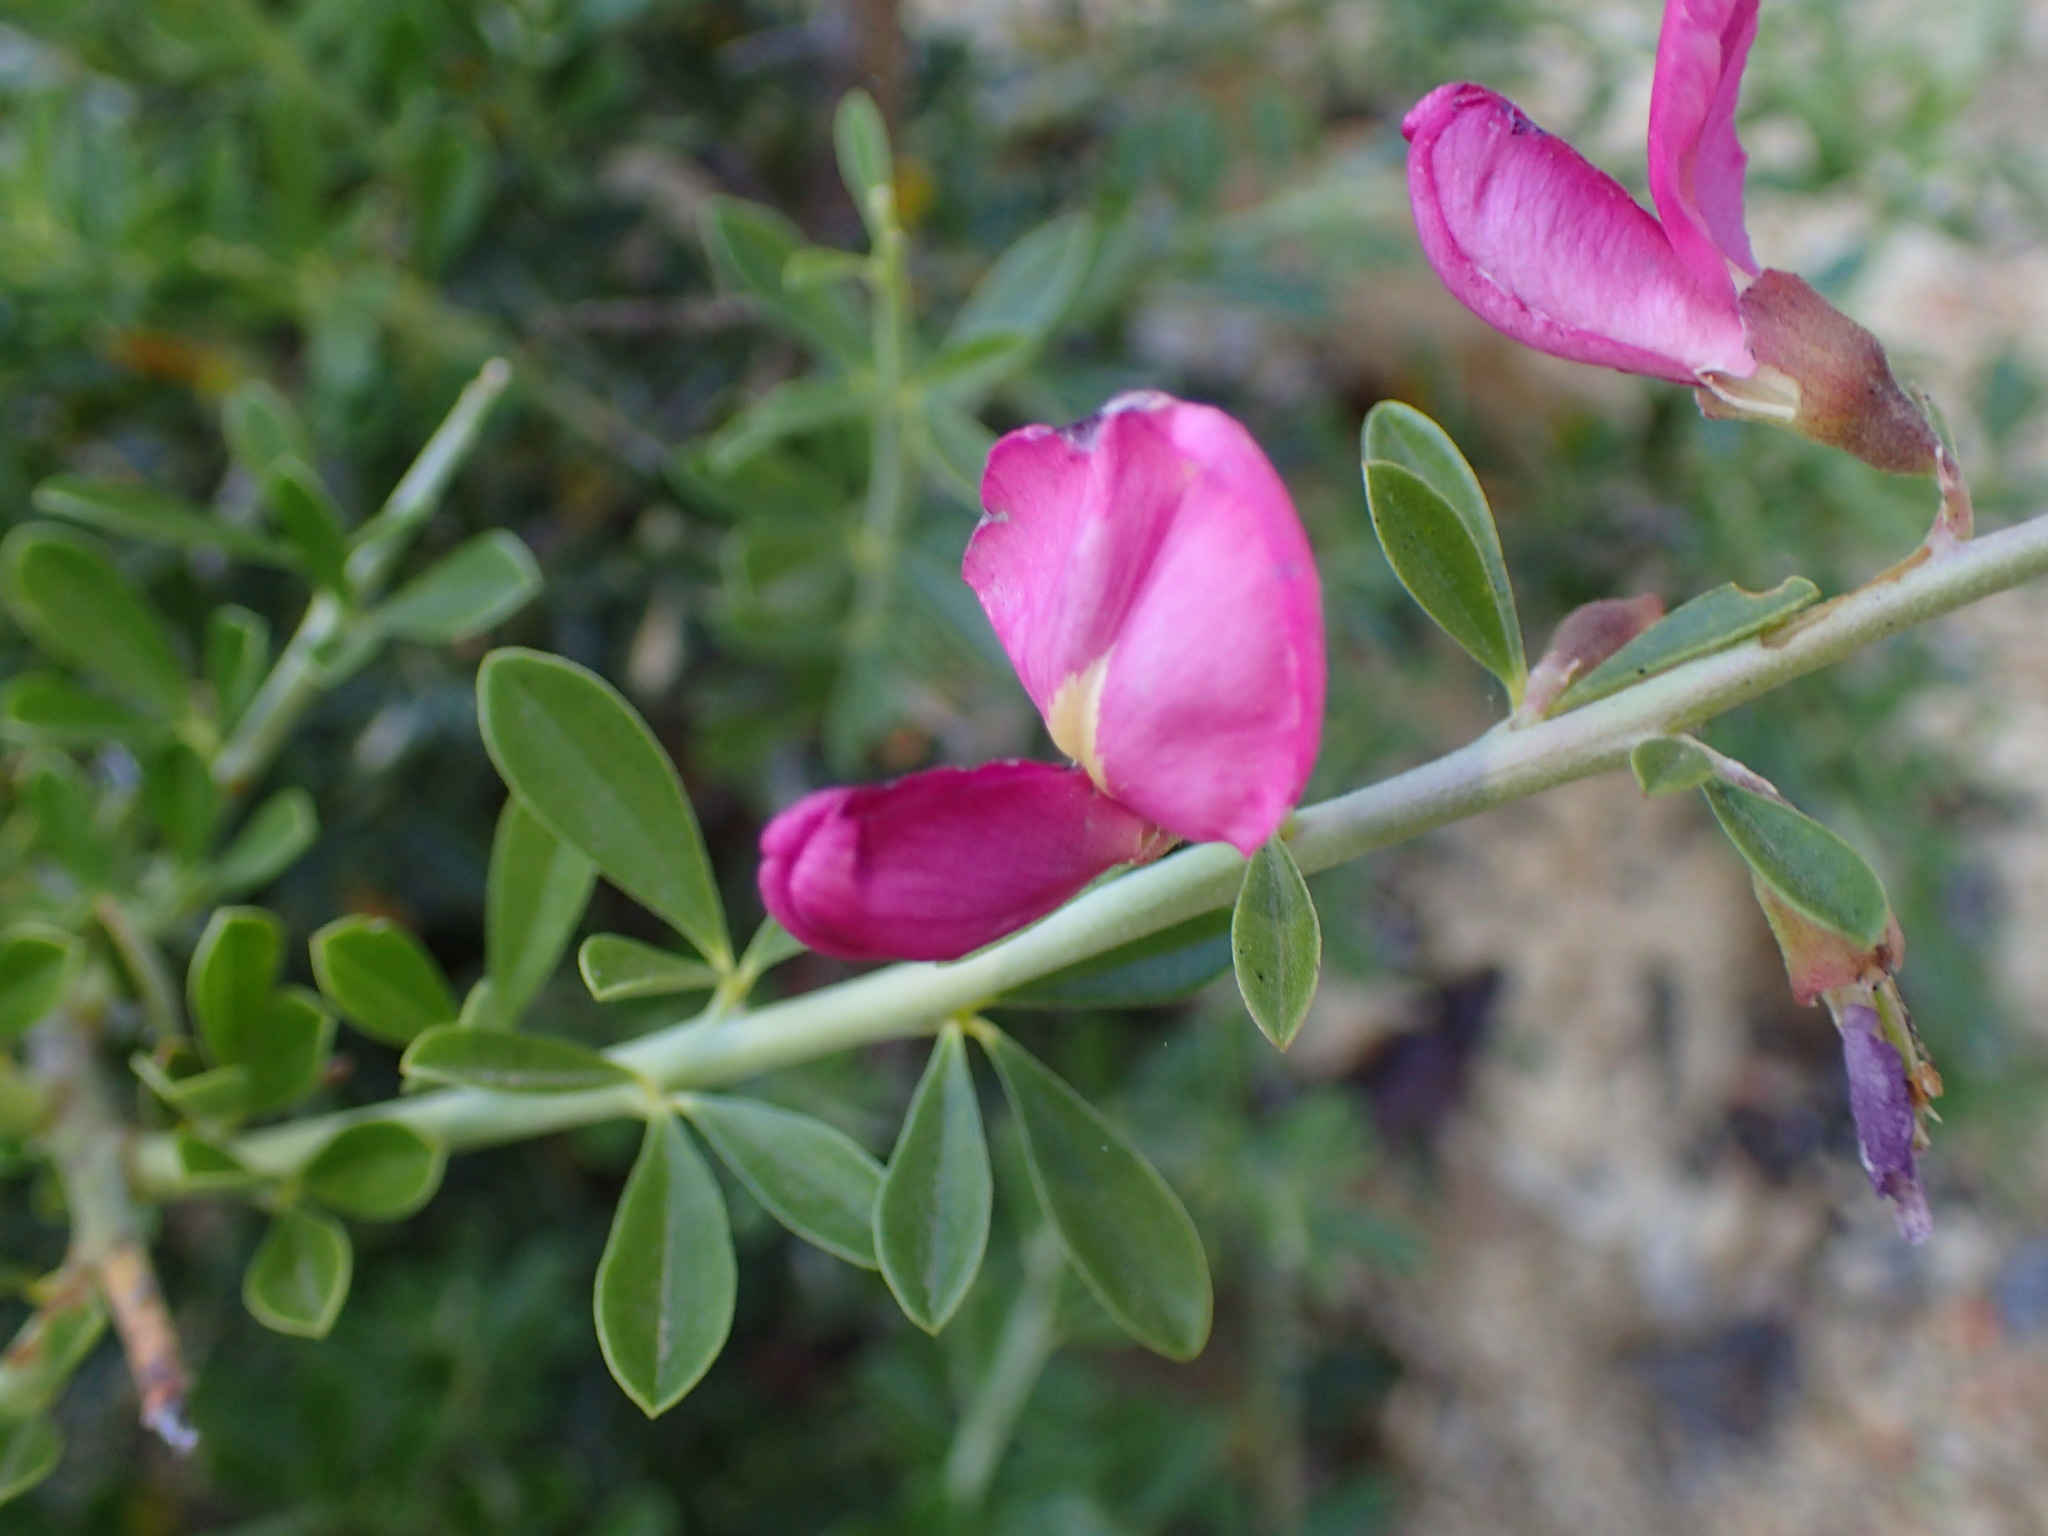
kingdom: Plantae
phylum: Tracheophyta
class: Magnoliopsida
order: Fabales
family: Fabaceae
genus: Pickeringia
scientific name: Pickeringia montana
